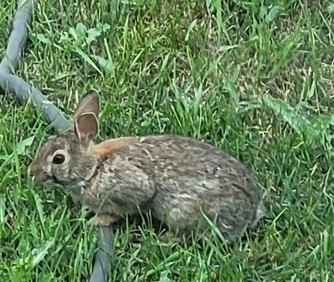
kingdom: Animalia
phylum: Chordata
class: Mammalia
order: Lagomorpha
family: Leporidae
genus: Sylvilagus
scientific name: Sylvilagus floridanus
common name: Eastern cottontail
